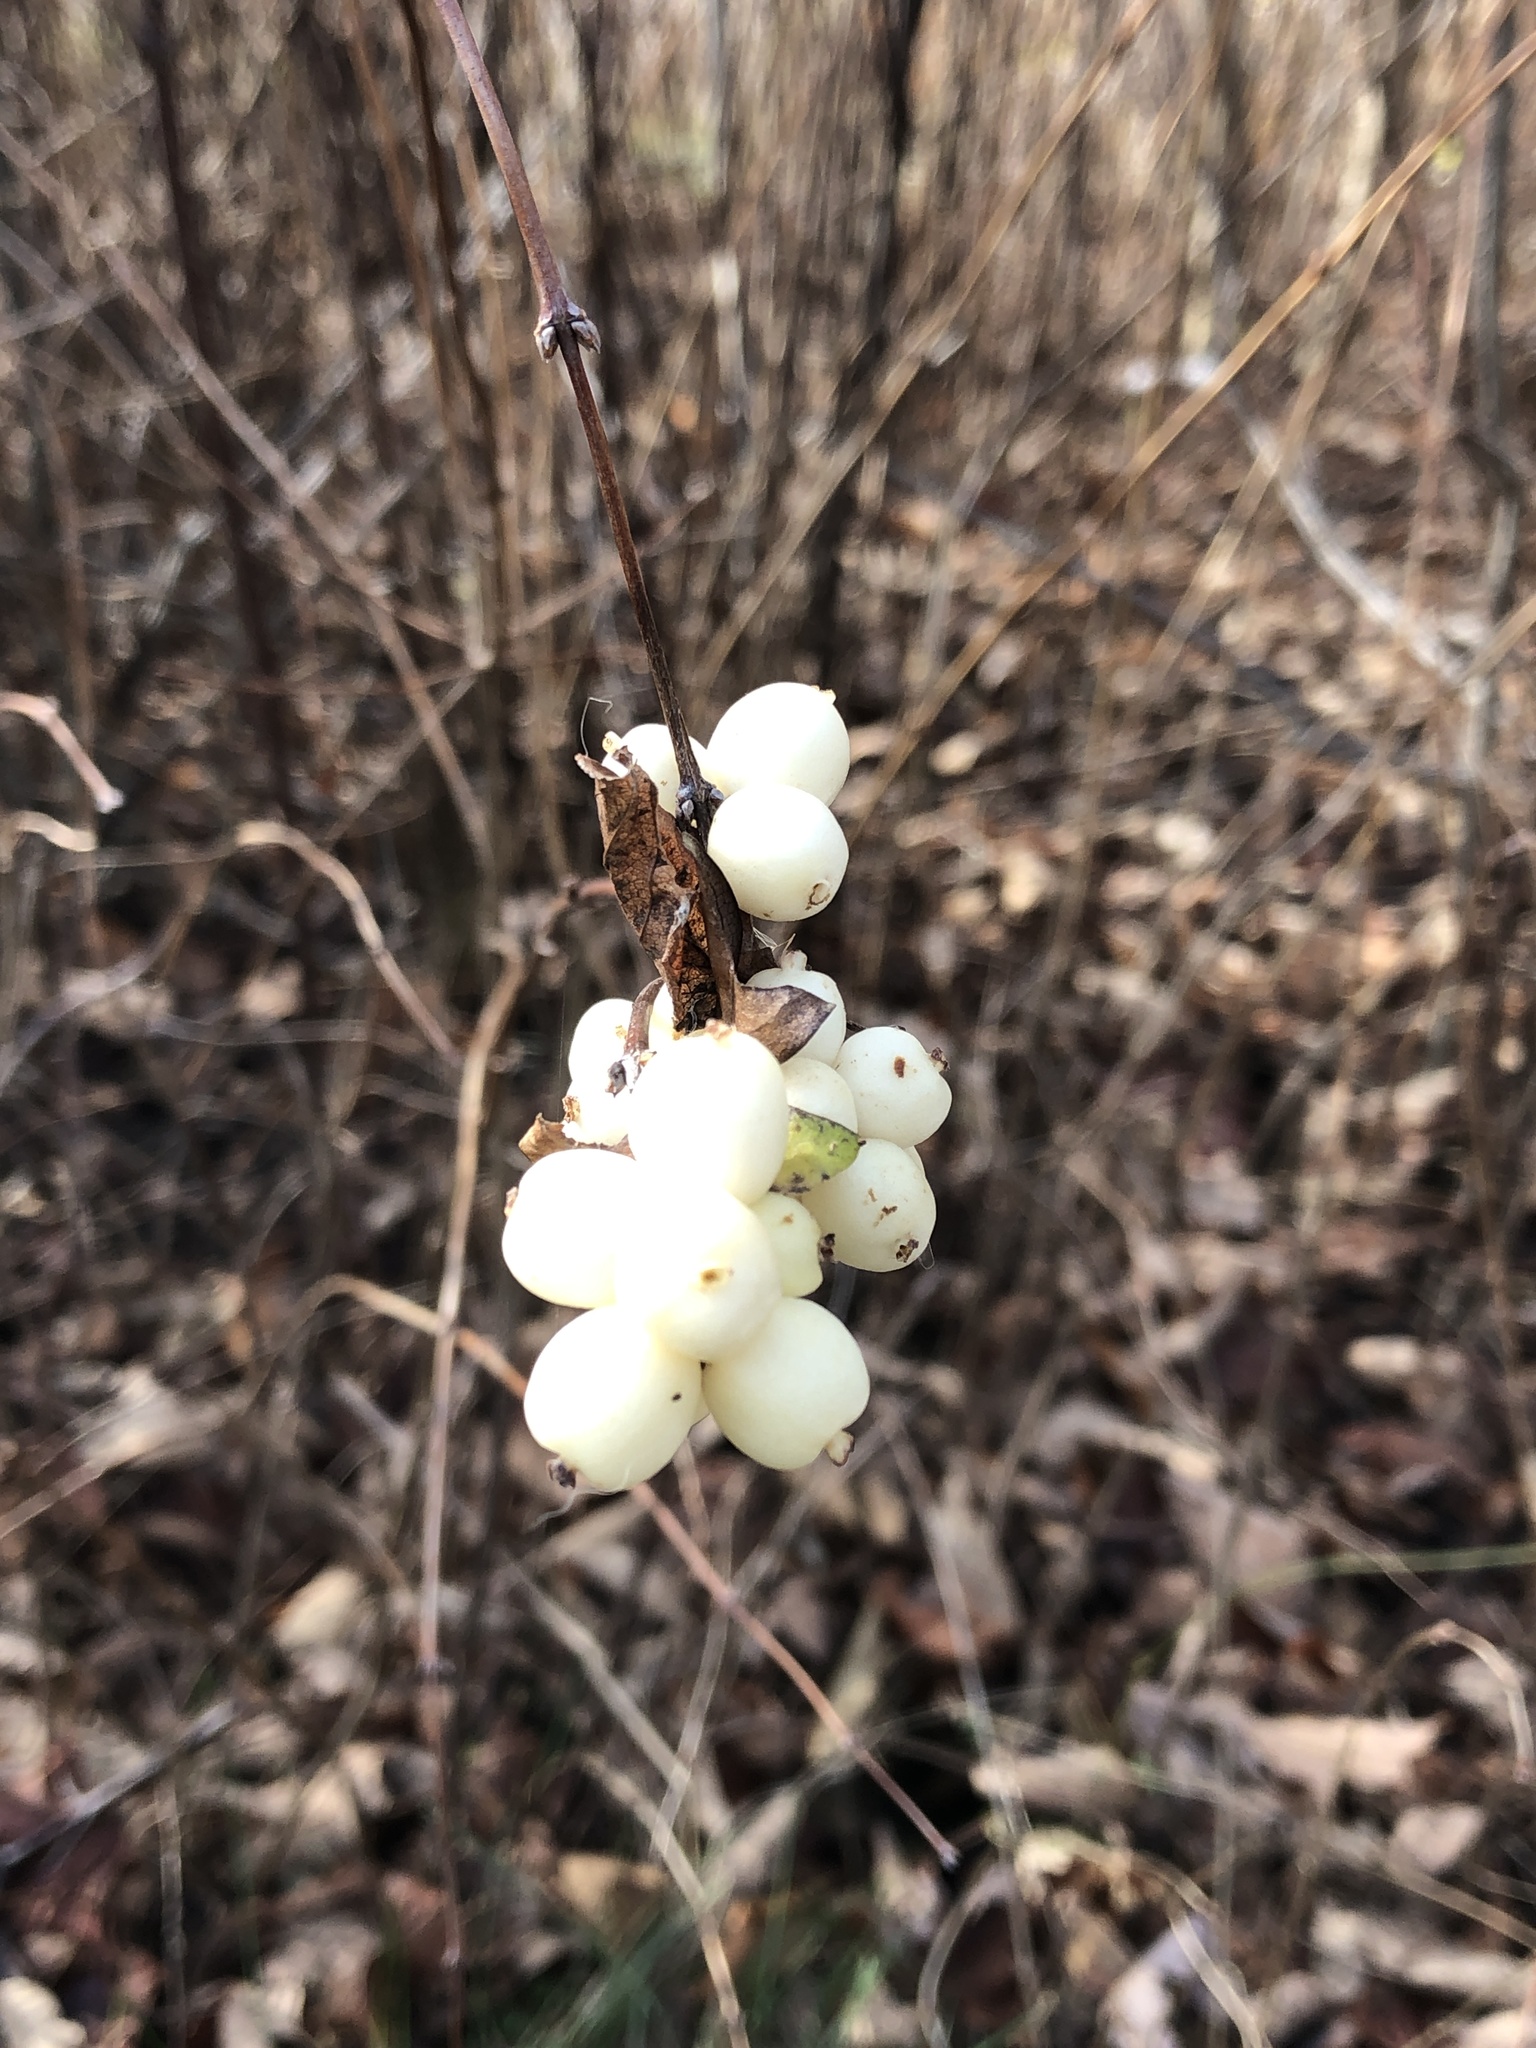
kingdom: Plantae
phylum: Tracheophyta
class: Magnoliopsida
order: Dipsacales
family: Caprifoliaceae
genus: Symphoricarpos
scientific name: Symphoricarpos albus
